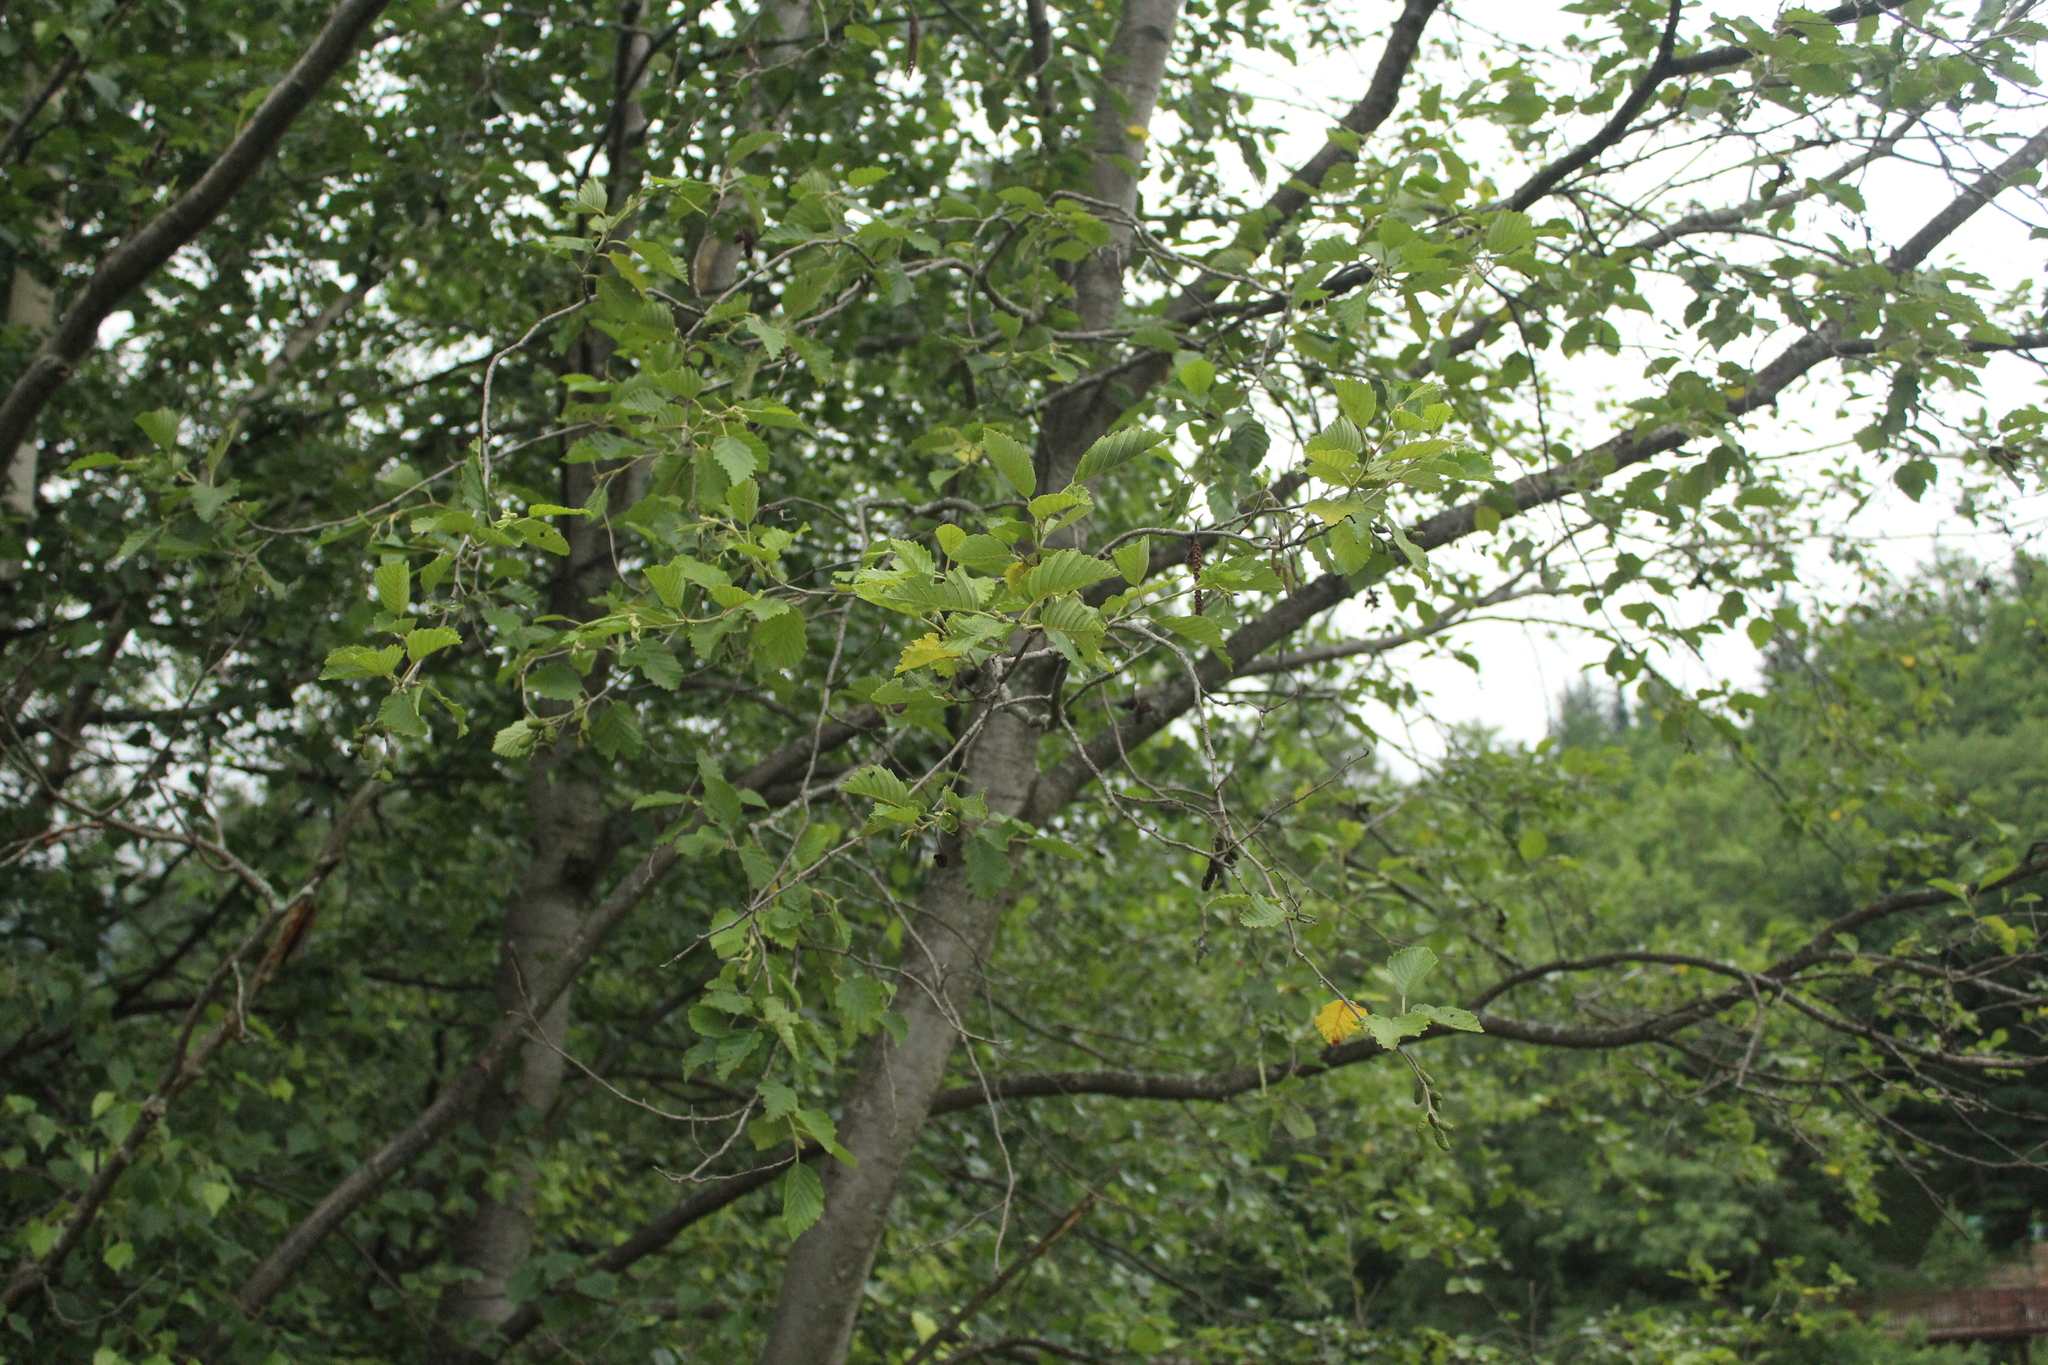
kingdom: Plantae
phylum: Tracheophyta
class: Magnoliopsida
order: Fagales
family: Betulaceae
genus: Alnus
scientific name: Alnus incana
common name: Grey alder
